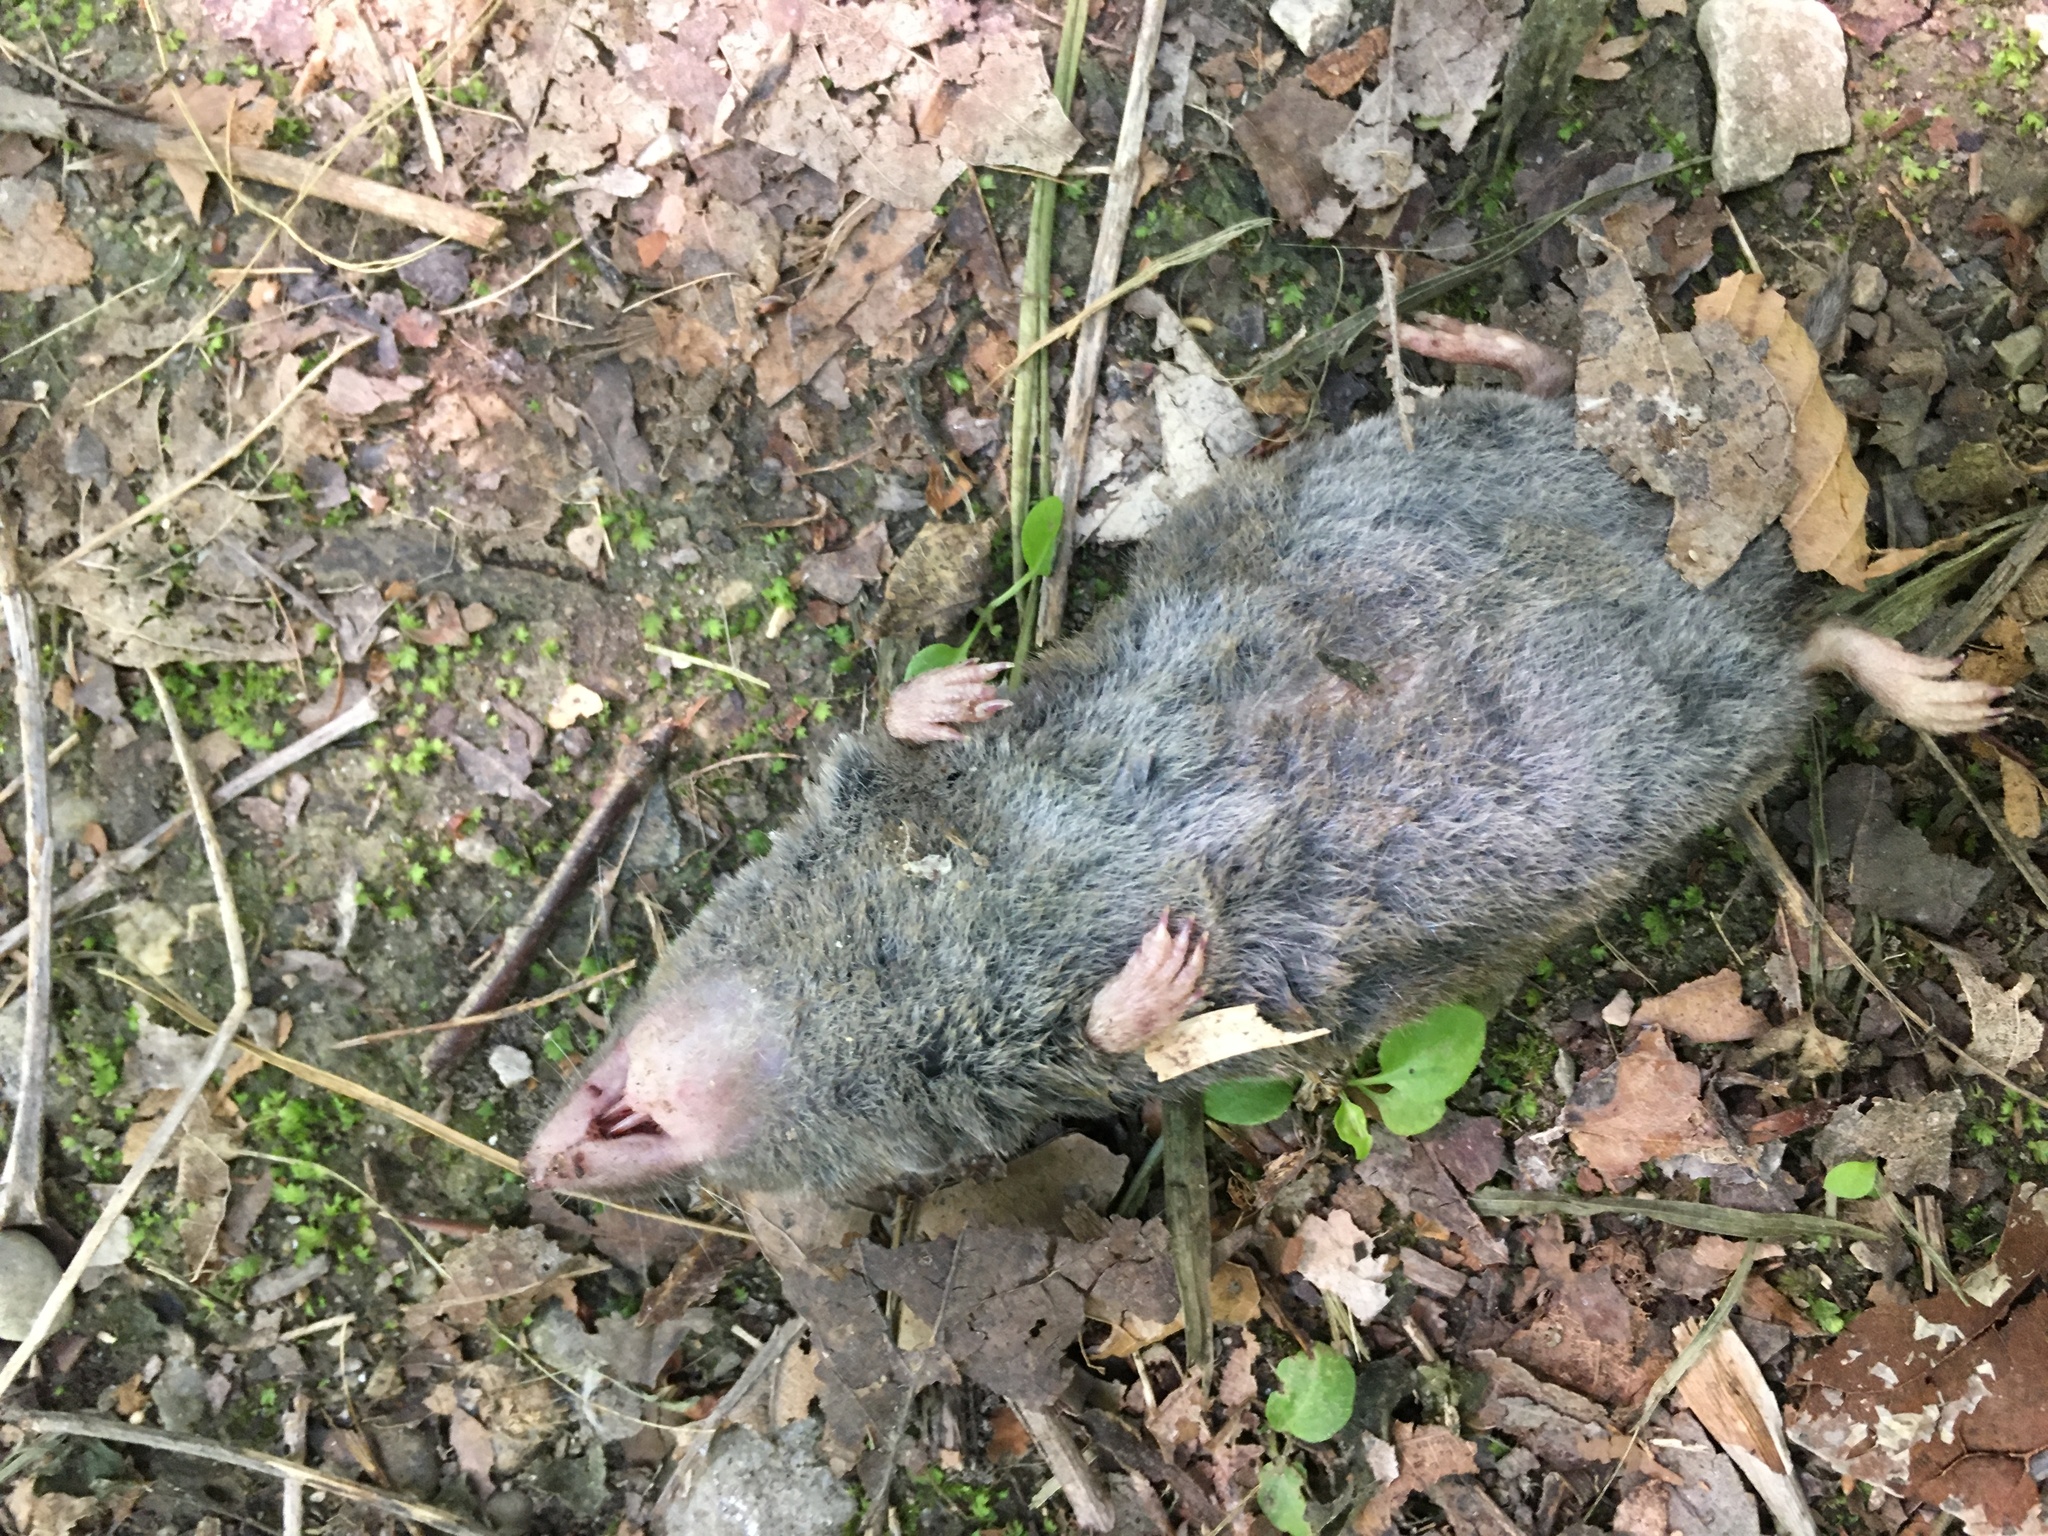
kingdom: Animalia
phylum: Chordata
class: Mammalia
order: Soricomorpha
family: Soricidae
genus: Blarina
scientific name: Blarina brevicauda
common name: Northern short-tailed shrew
